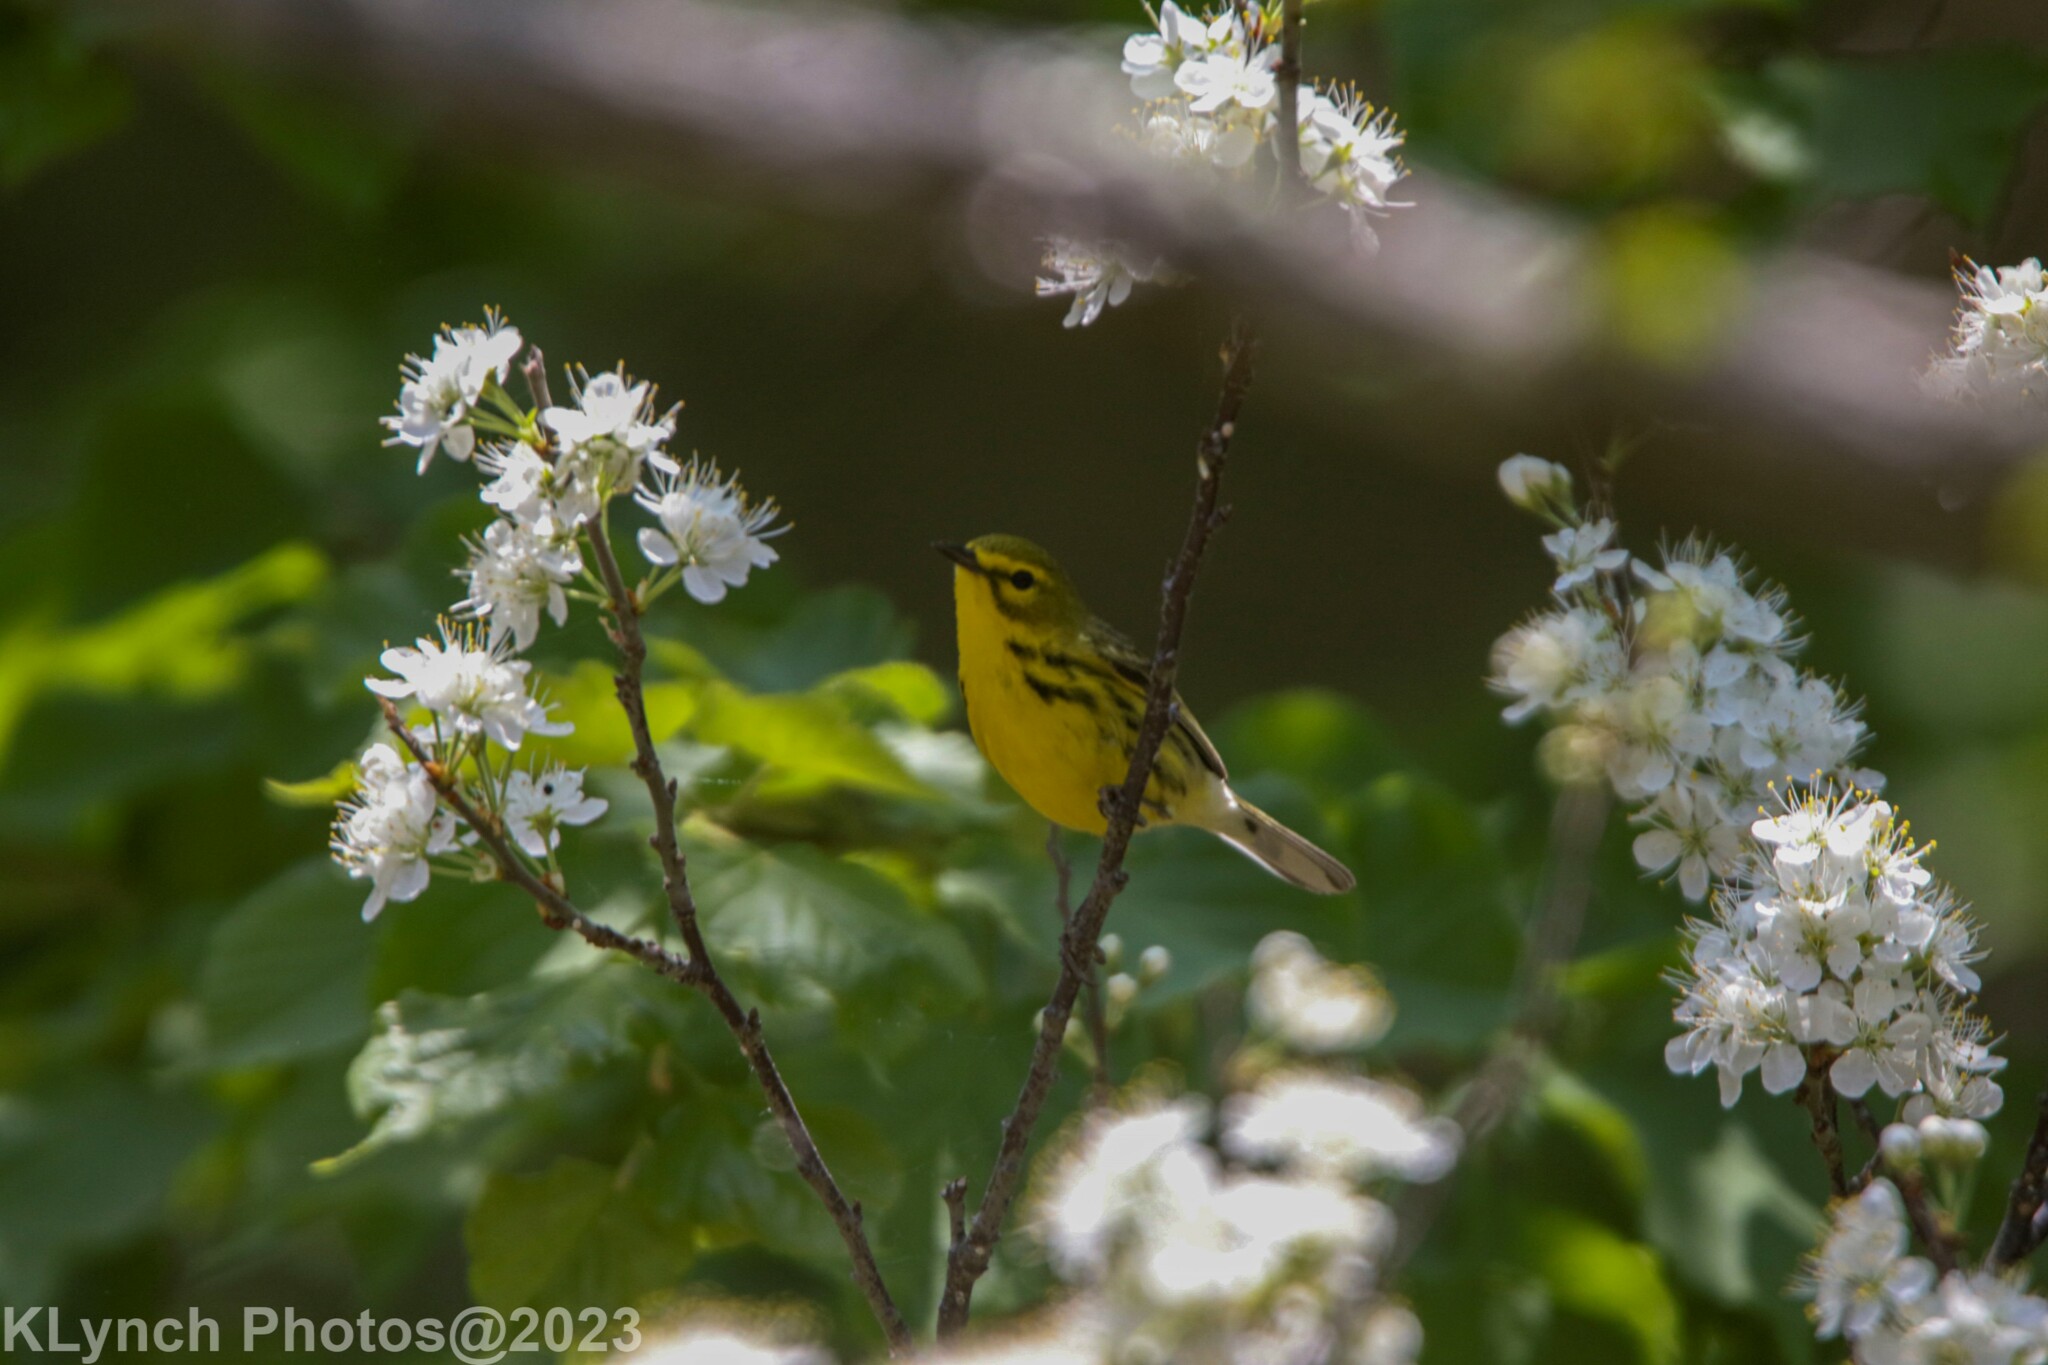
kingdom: Animalia
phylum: Chordata
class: Aves
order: Passeriformes
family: Parulidae
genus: Setophaga
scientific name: Setophaga discolor
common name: Prairie warbler
